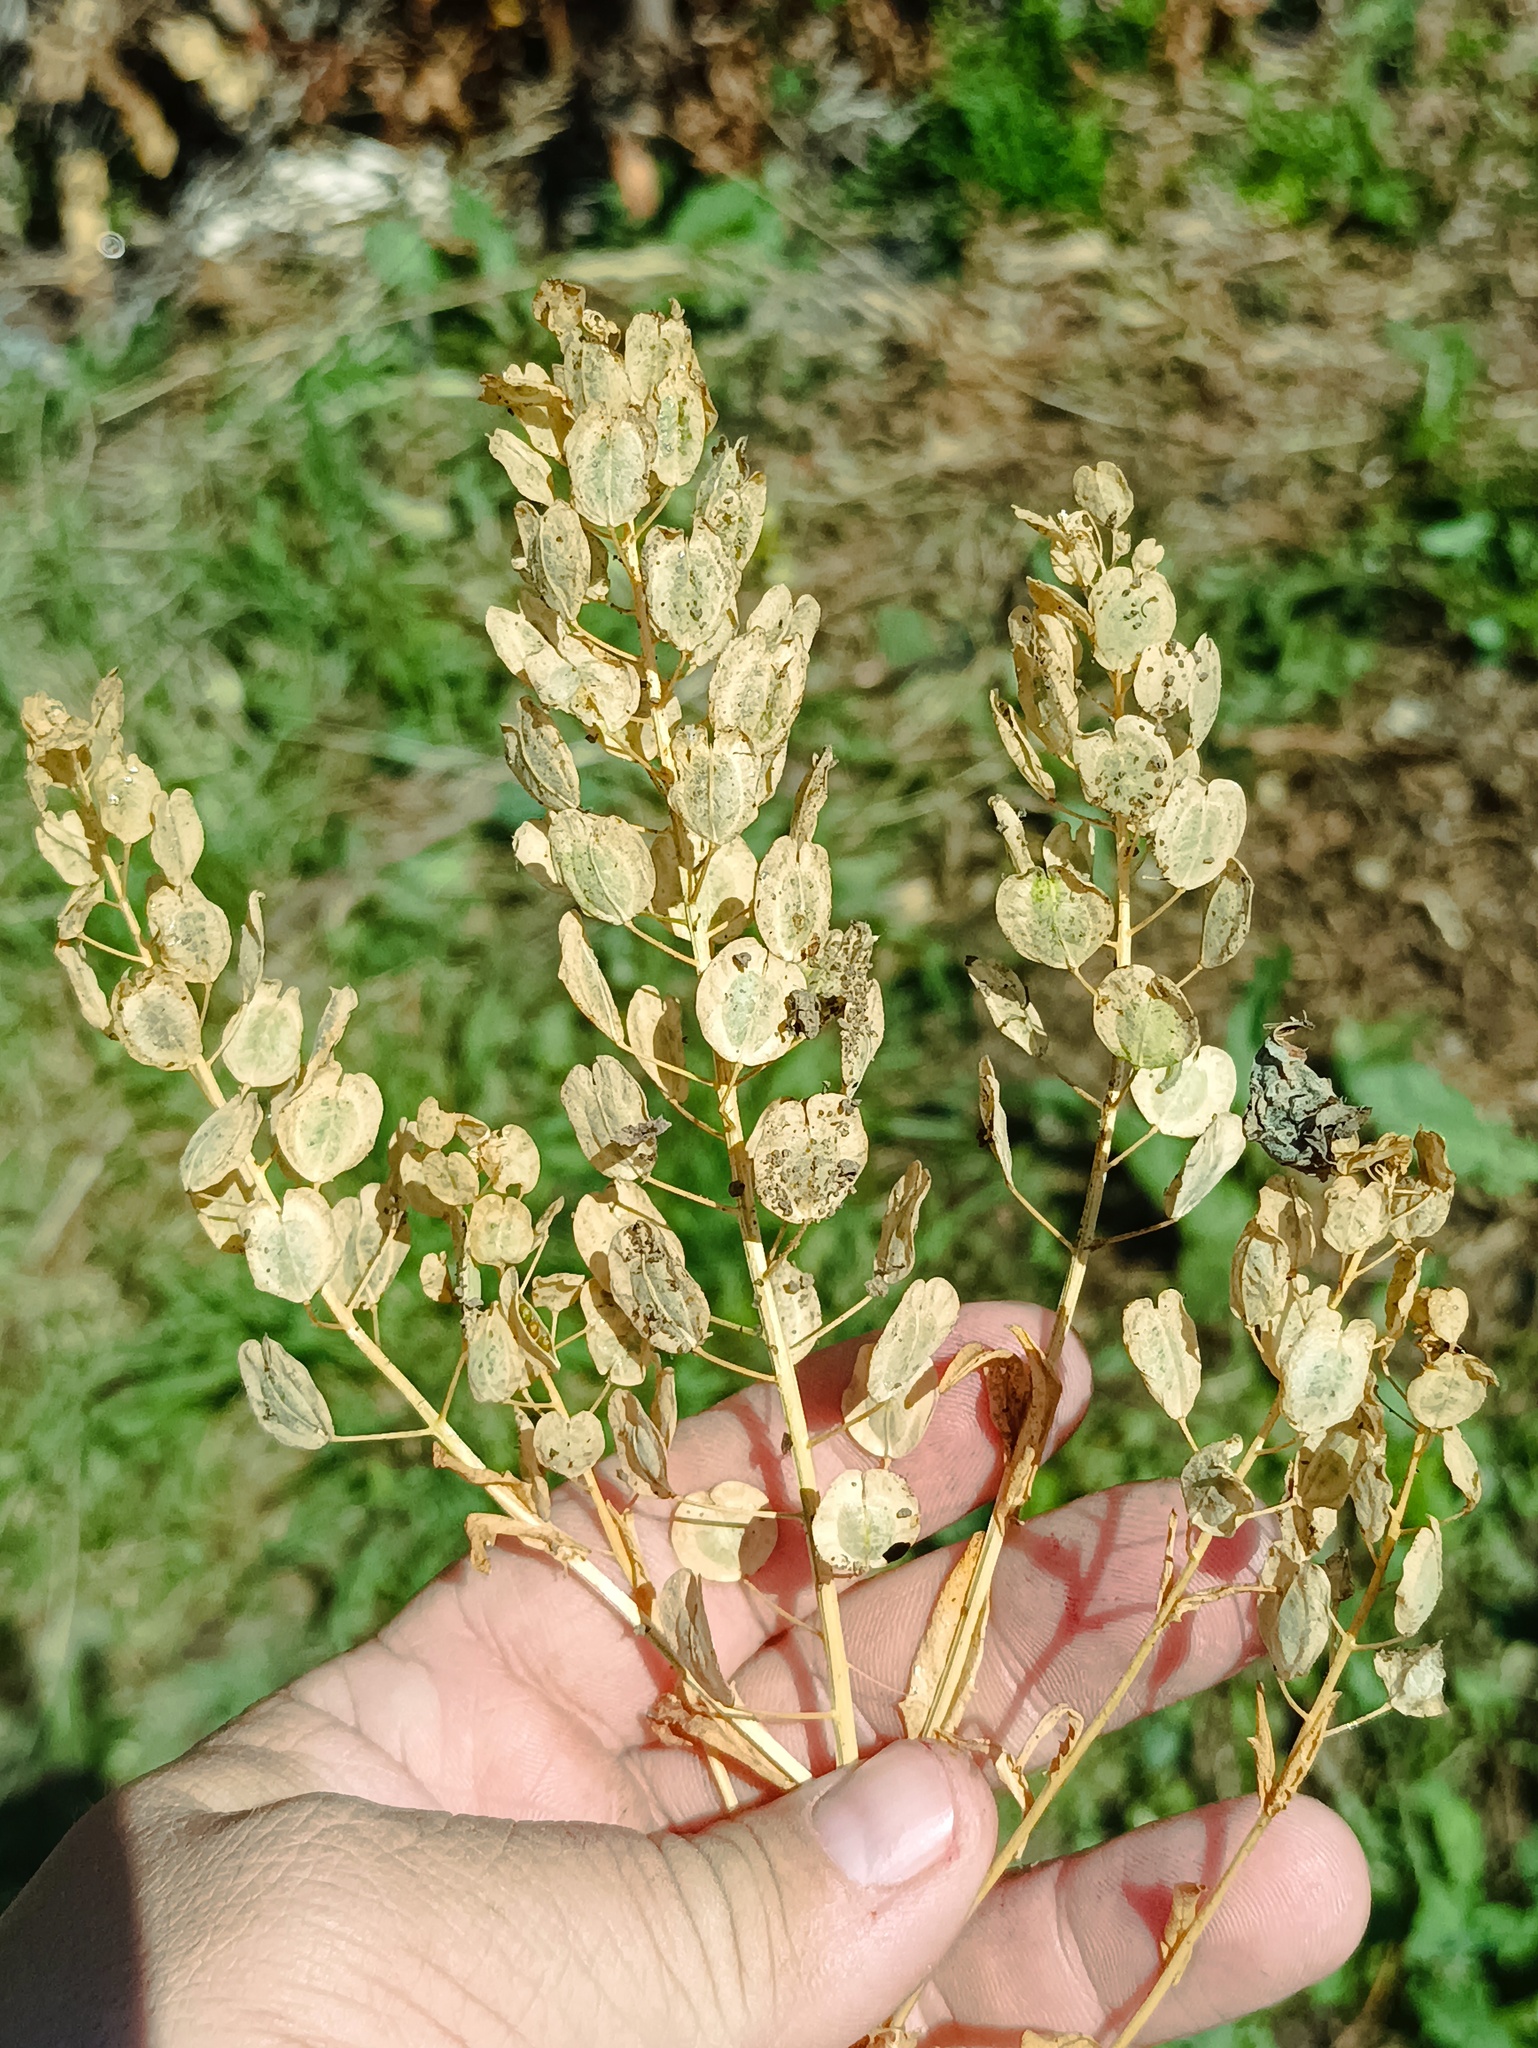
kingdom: Plantae
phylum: Tracheophyta
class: Magnoliopsida
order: Brassicales
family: Brassicaceae
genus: Thlaspi
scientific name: Thlaspi arvense
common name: Field pennycress
